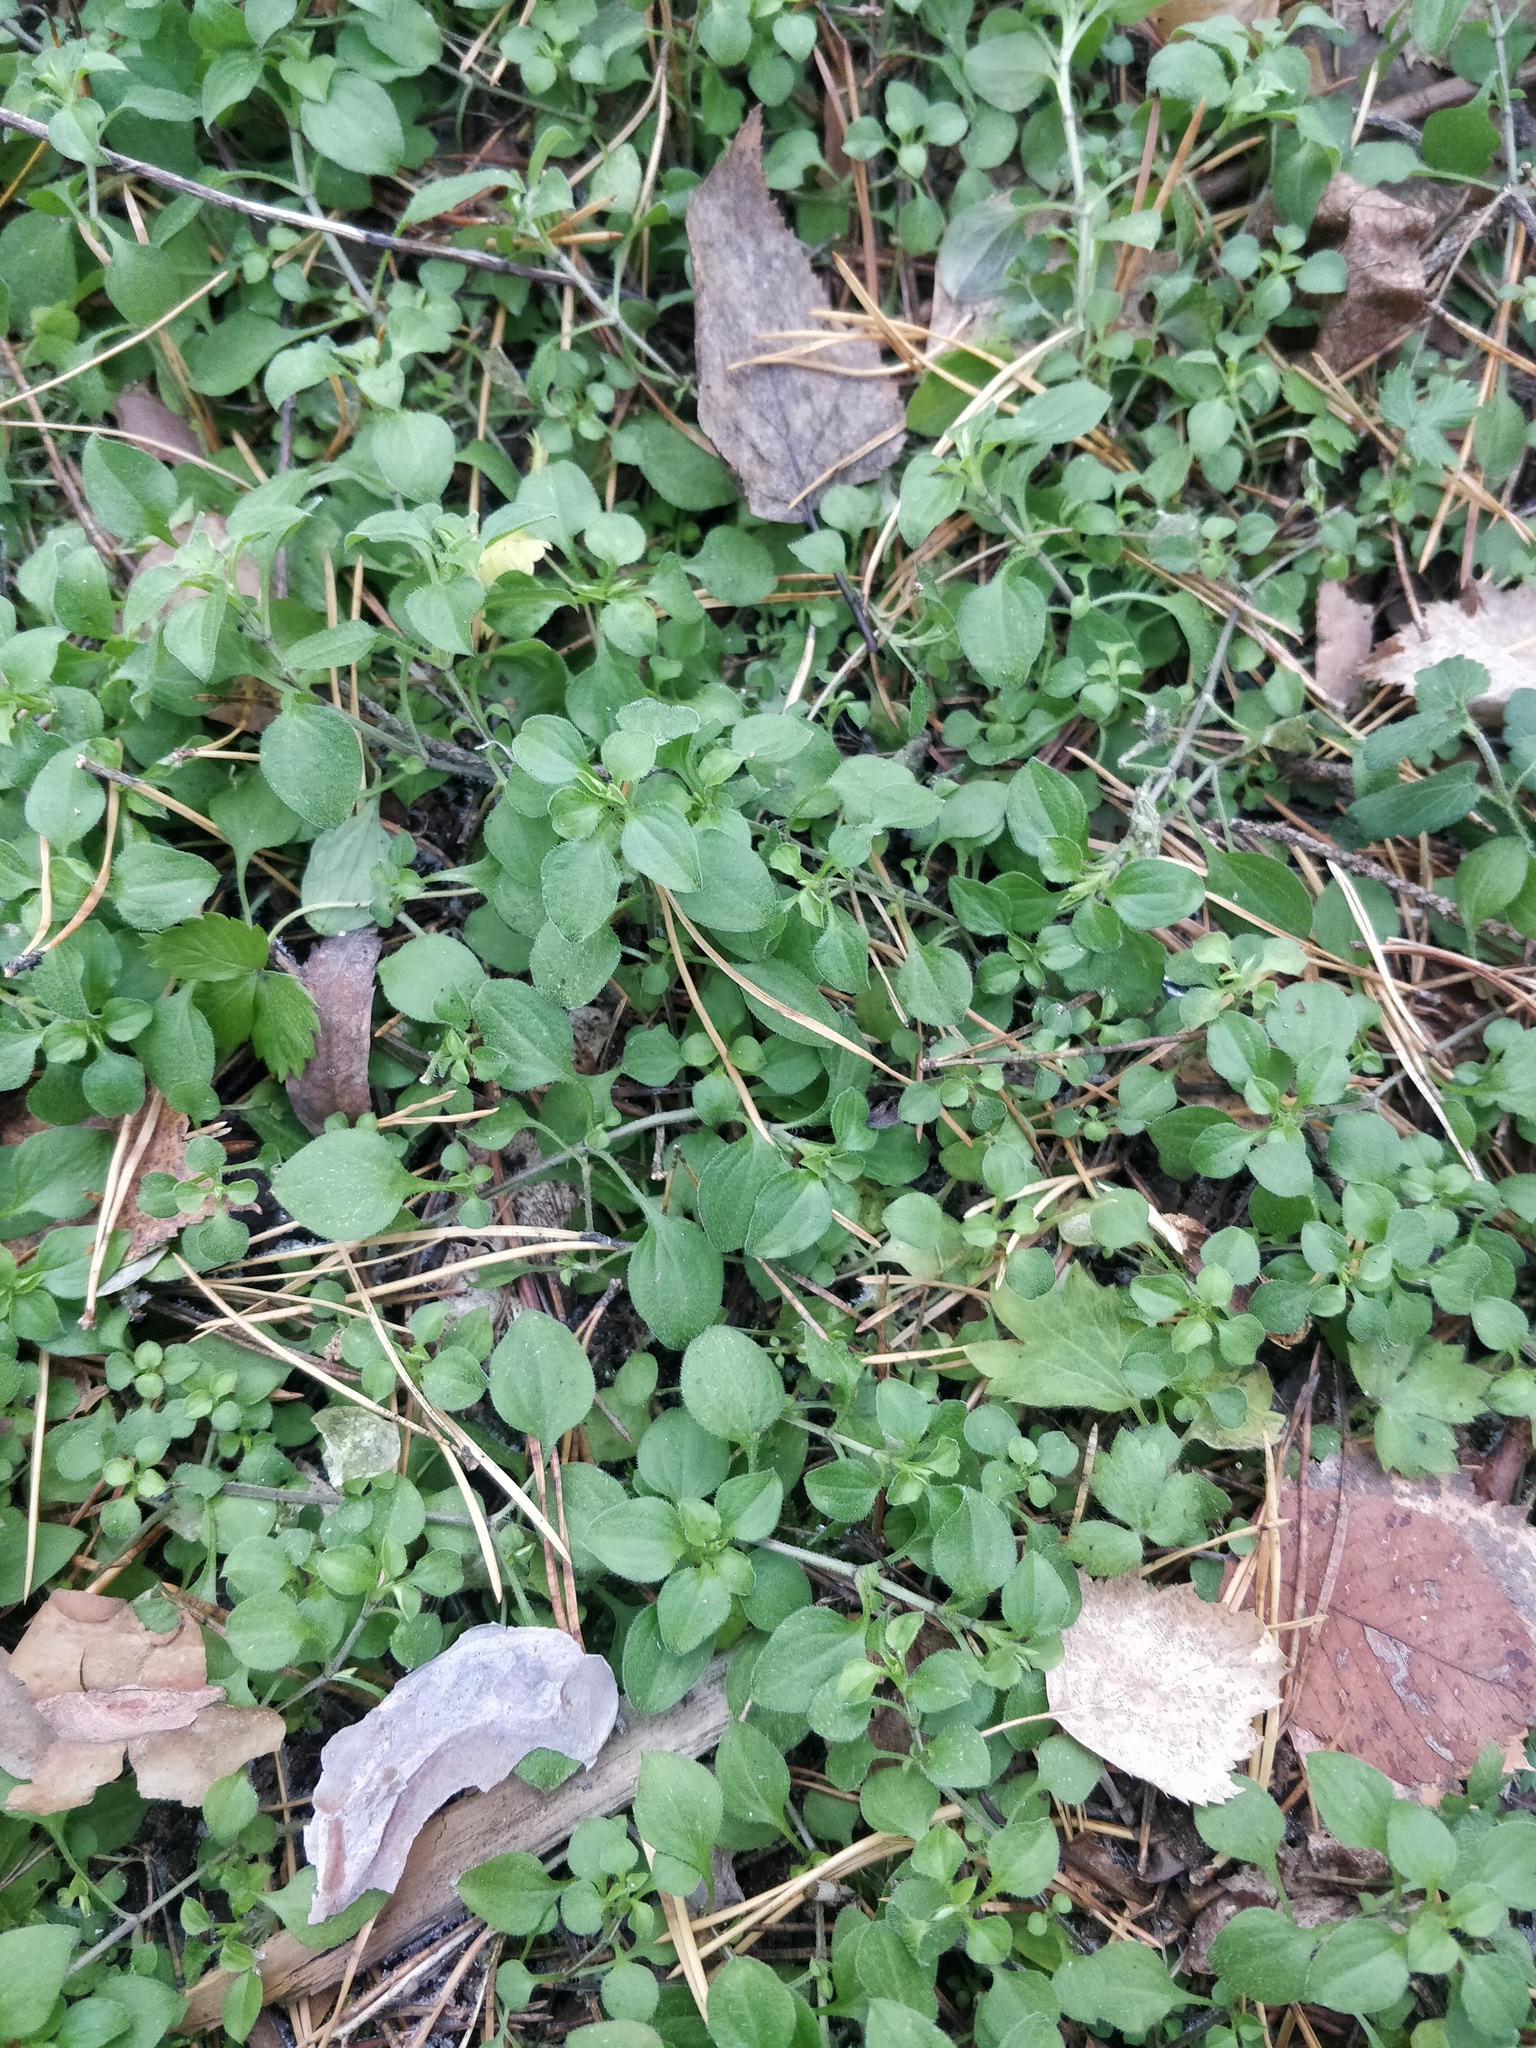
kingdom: Plantae
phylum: Tracheophyta
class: Magnoliopsida
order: Caryophyllales
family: Caryophyllaceae
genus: Moehringia
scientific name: Moehringia trinervia
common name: Three-nerved sandwort
